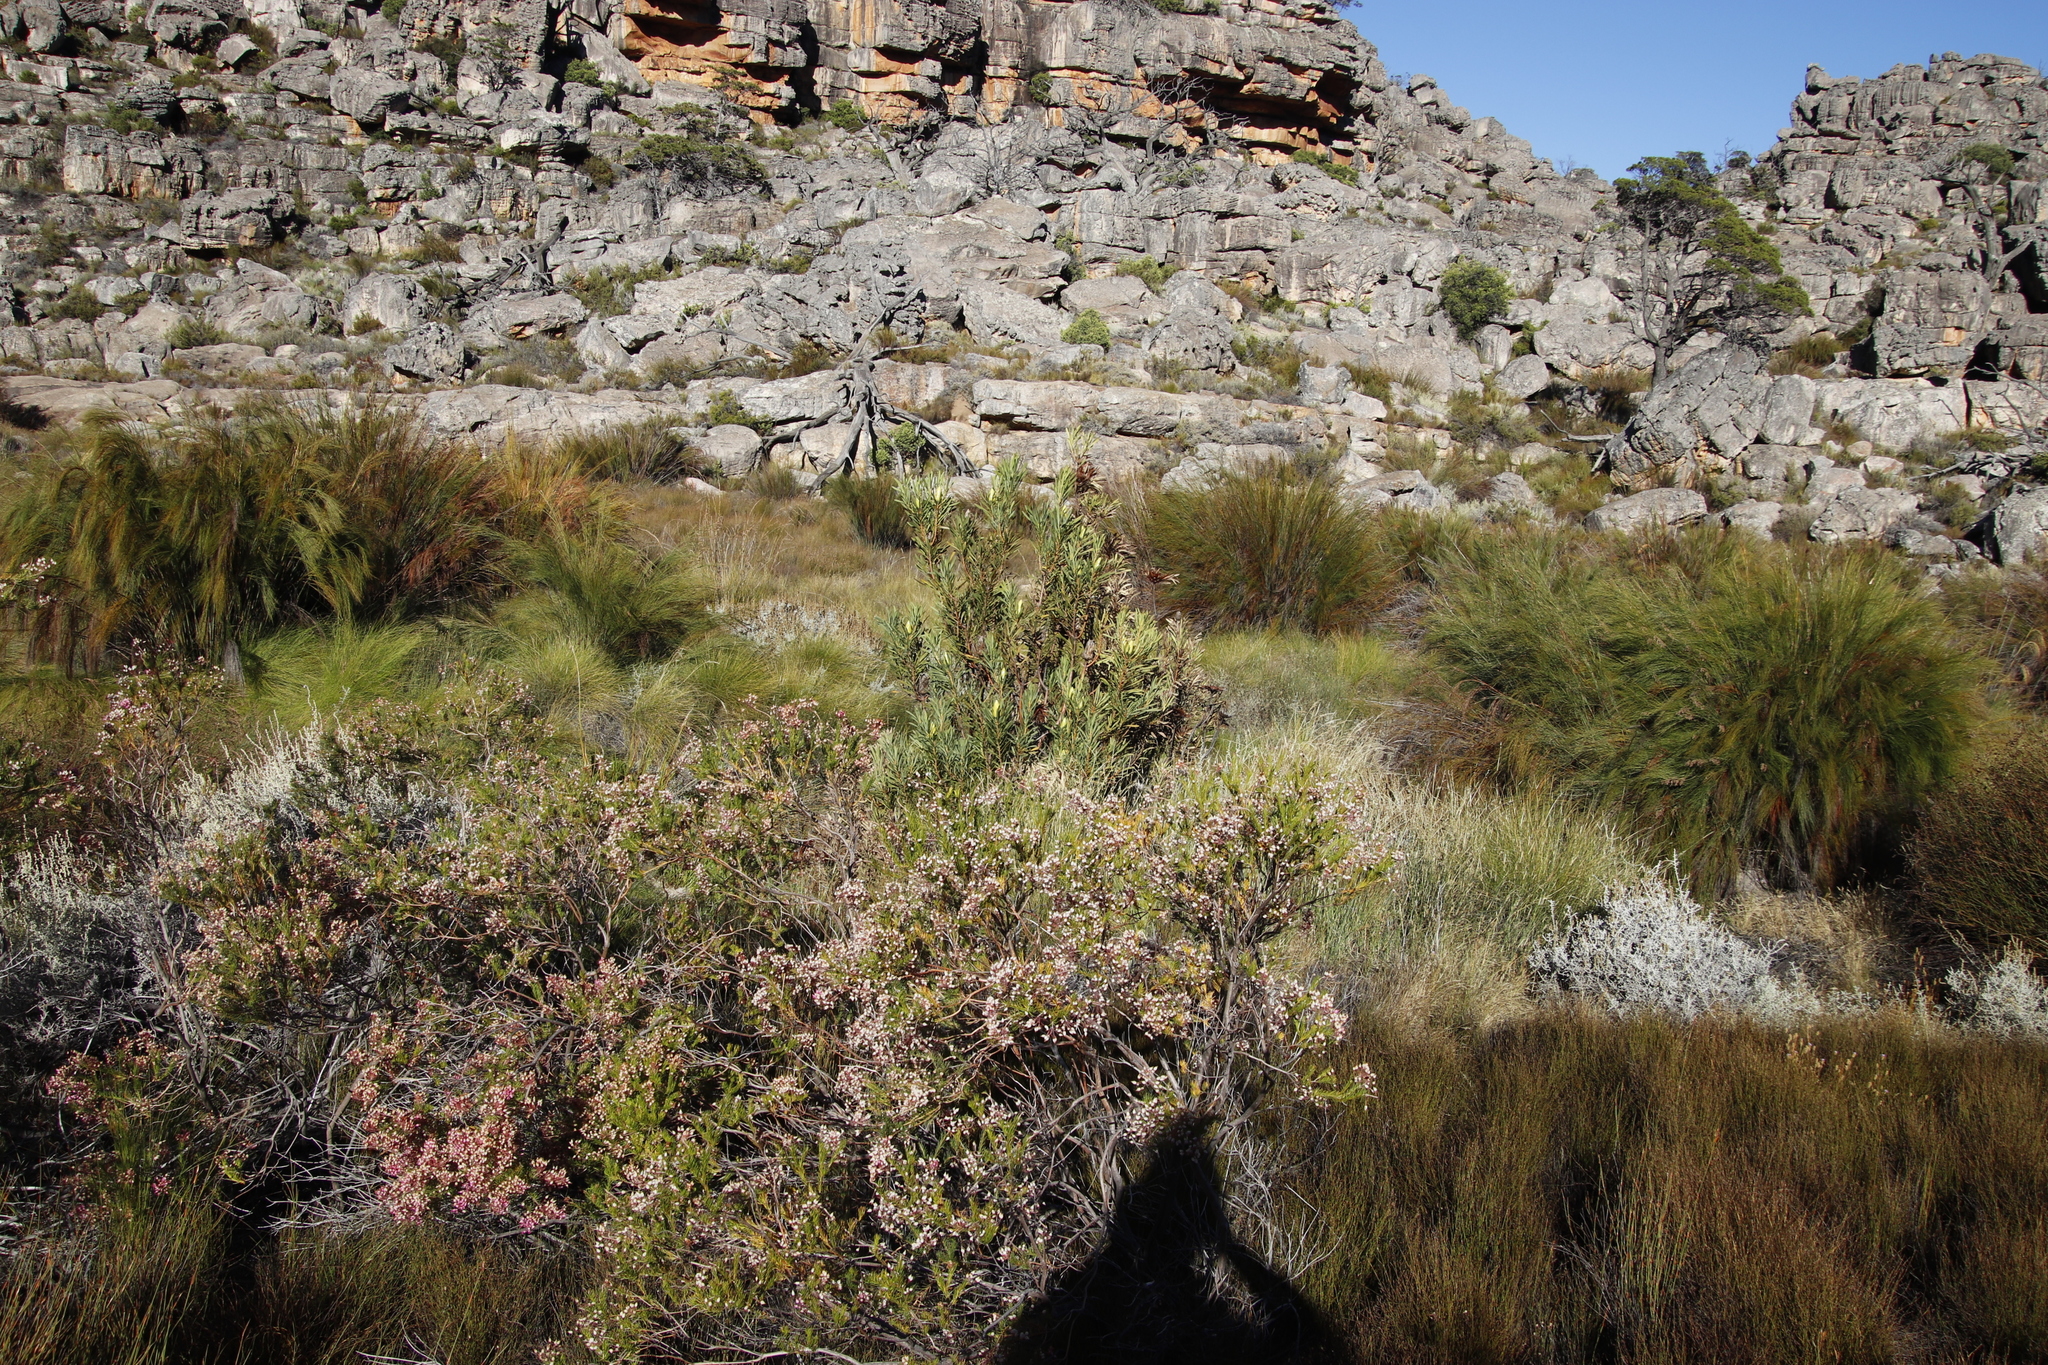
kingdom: Plantae
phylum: Tracheophyta
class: Magnoliopsida
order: Proteales
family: Proteaceae
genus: Protea
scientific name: Protea repens
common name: Sugarbush
